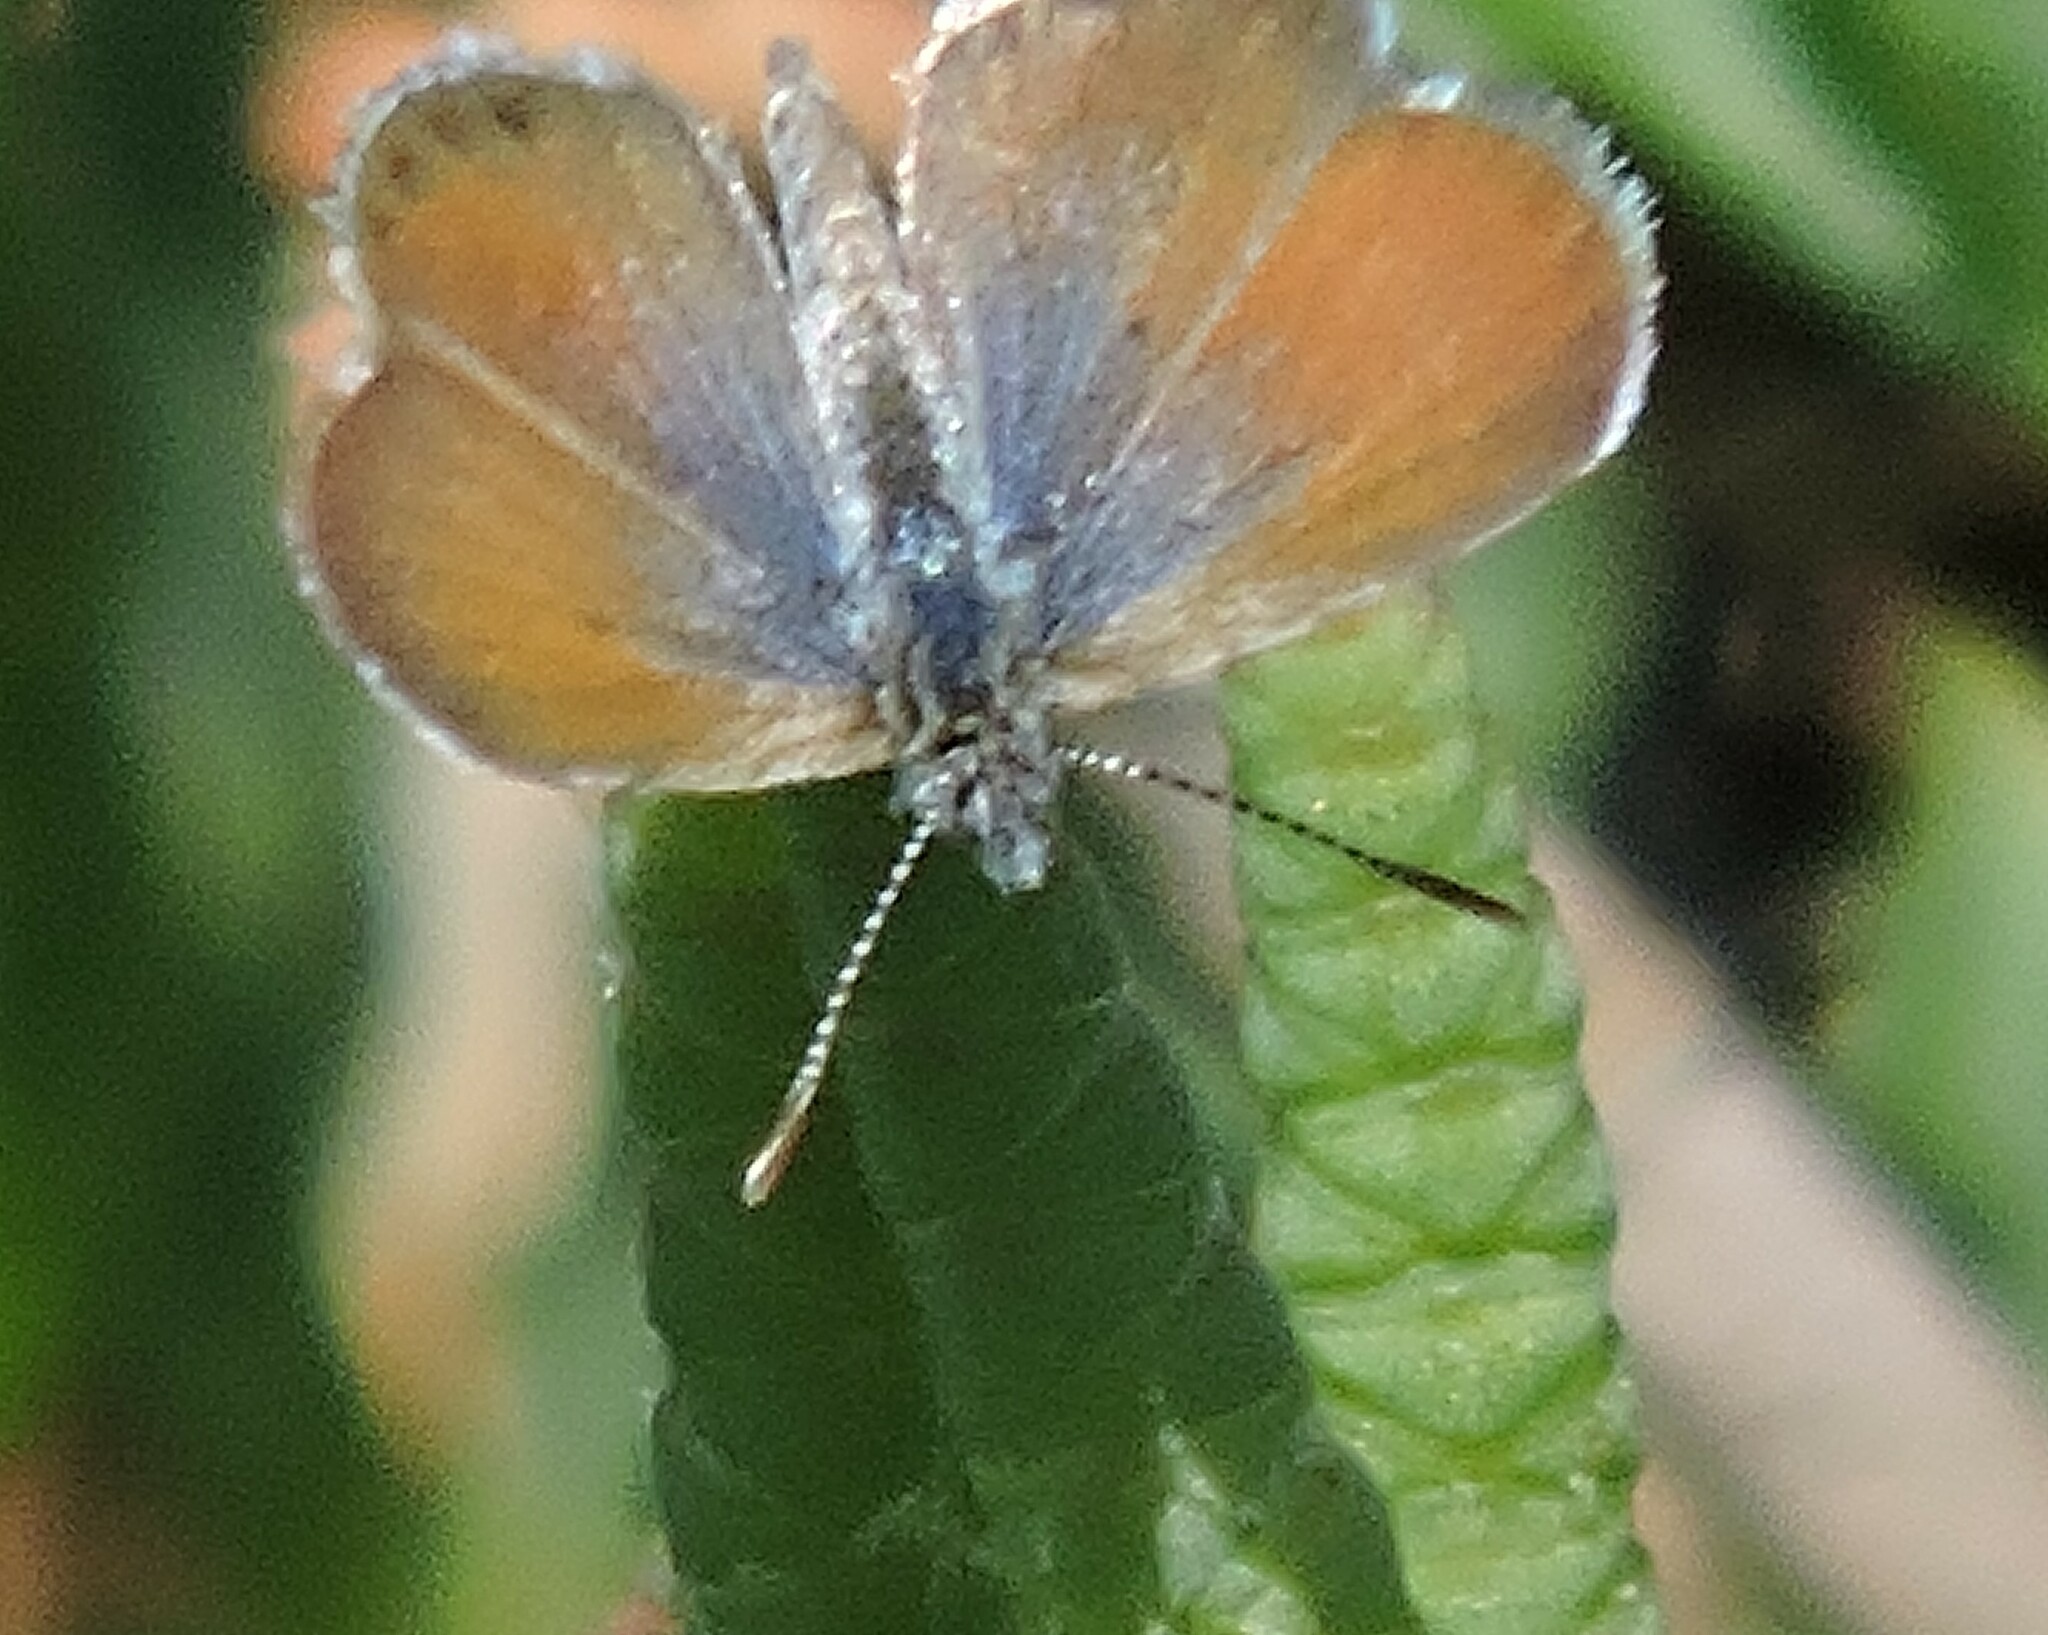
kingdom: Animalia
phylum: Arthropoda
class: Insecta
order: Lepidoptera
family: Lycaenidae
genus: Brephidium
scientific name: Brephidium exilis
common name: Pygmy blue
